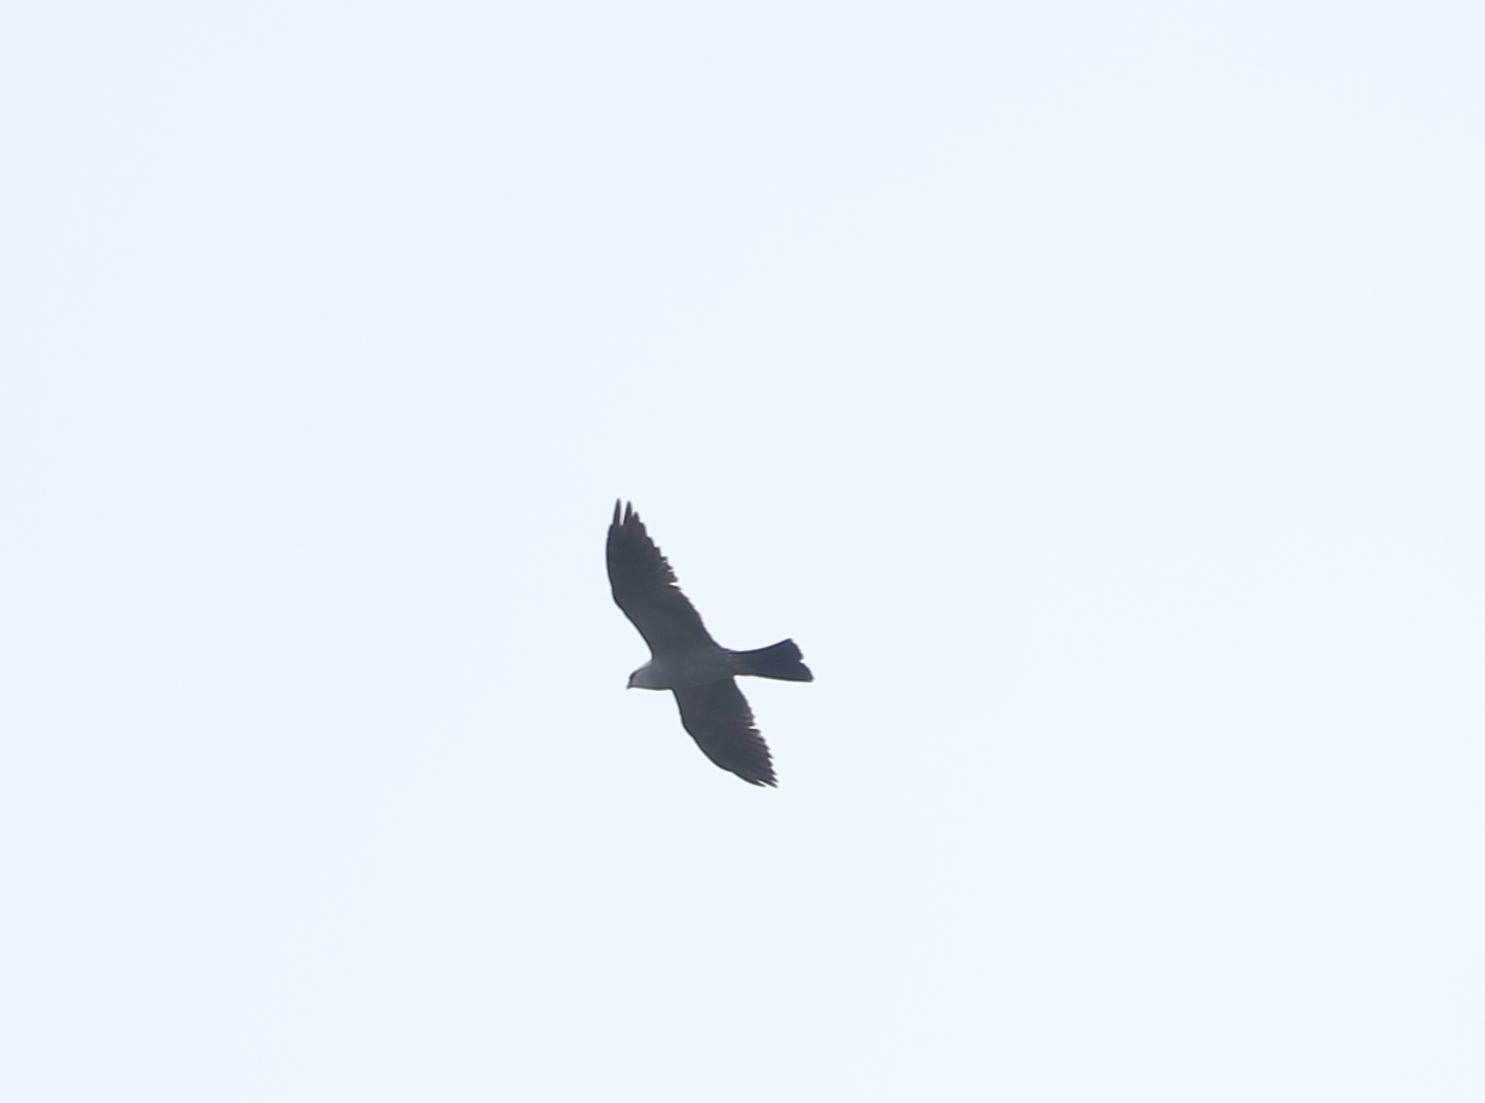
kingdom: Animalia
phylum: Chordata
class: Aves
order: Accipitriformes
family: Accipitridae
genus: Ictinia
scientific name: Ictinia mississippiensis
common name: Mississippi kite
